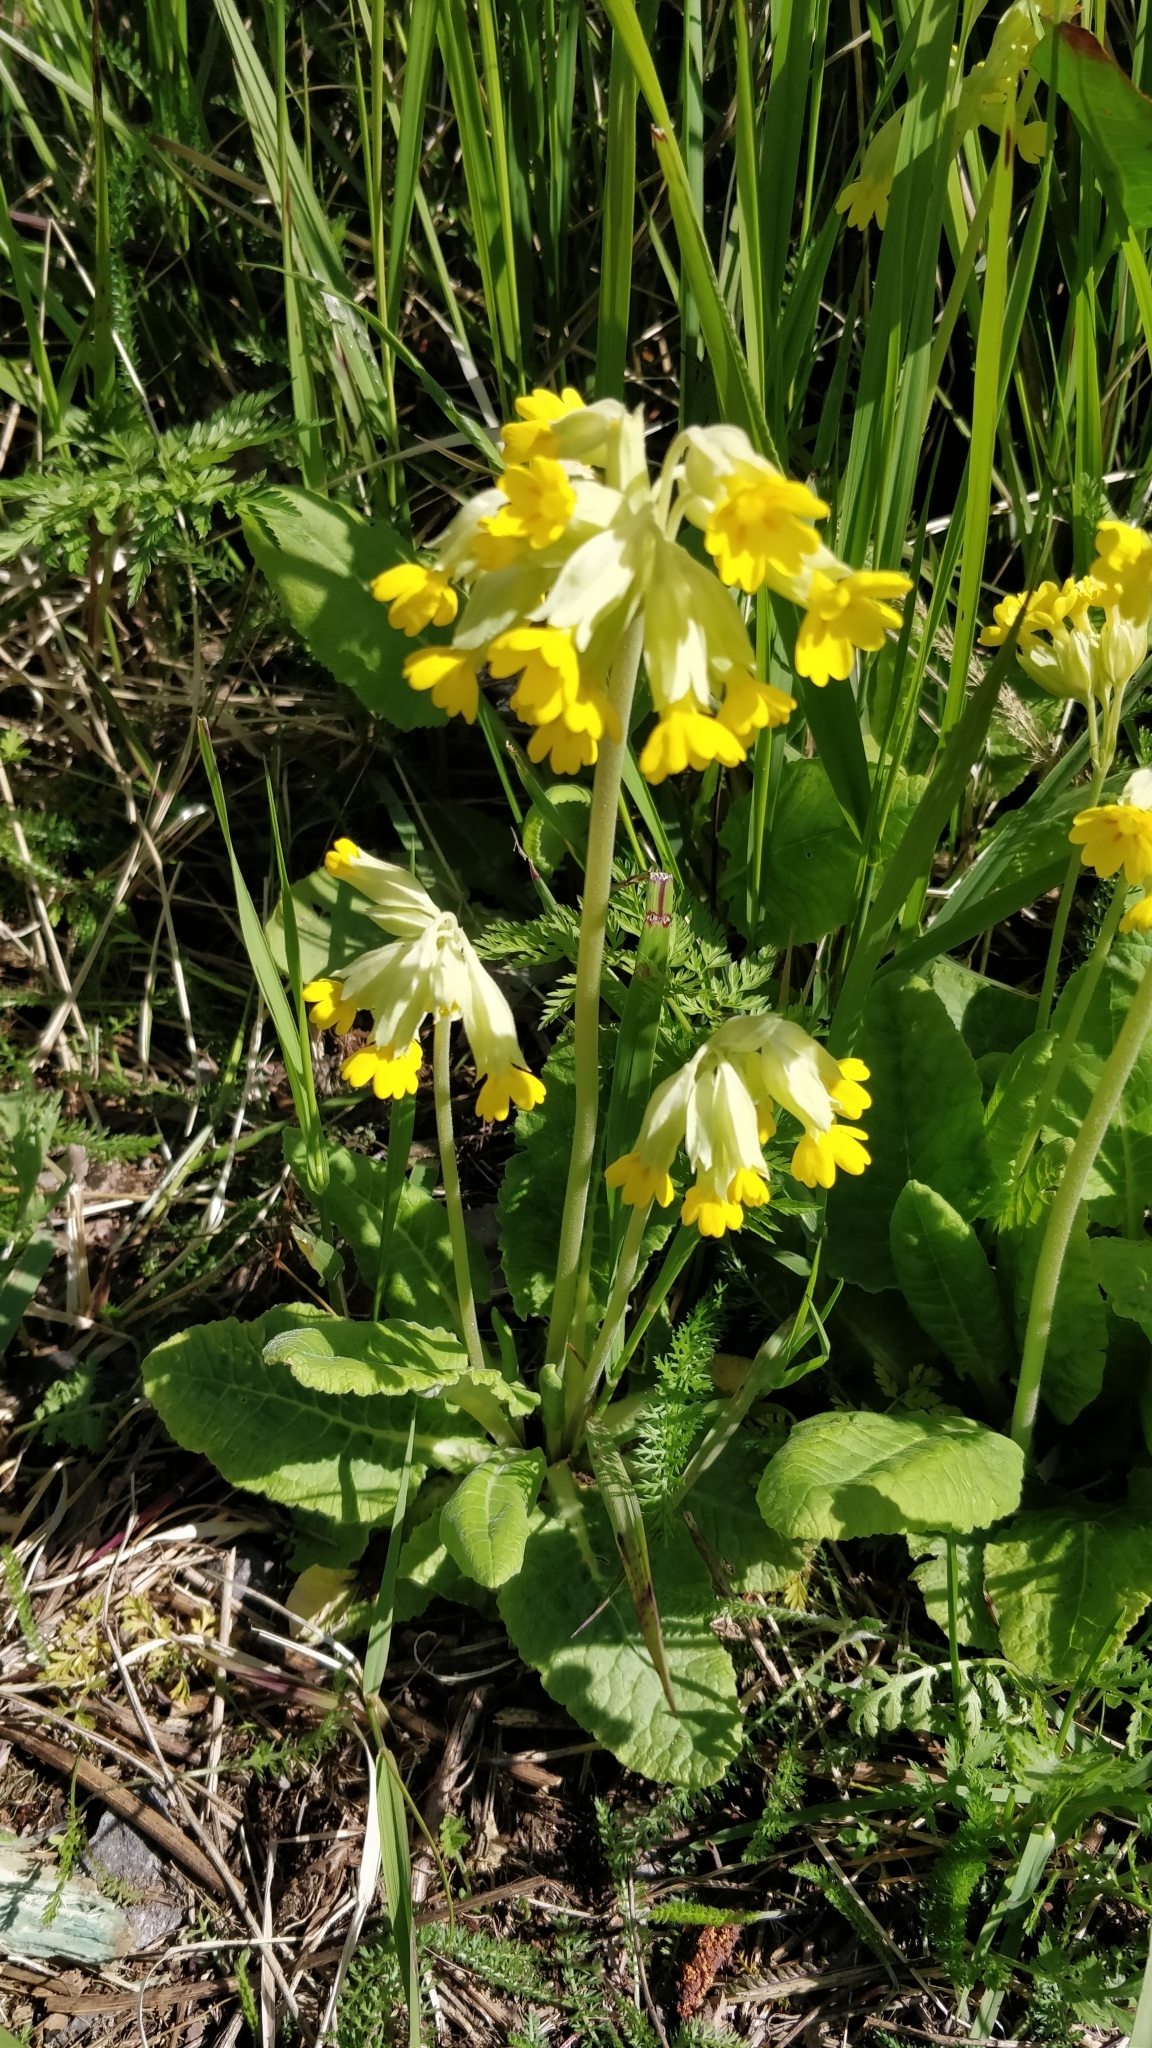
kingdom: Plantae
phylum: Tracheophyta
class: Magnoliopsida
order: Ericales
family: Primulaceae
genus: Primula
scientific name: Primula veris
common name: Cowslip
